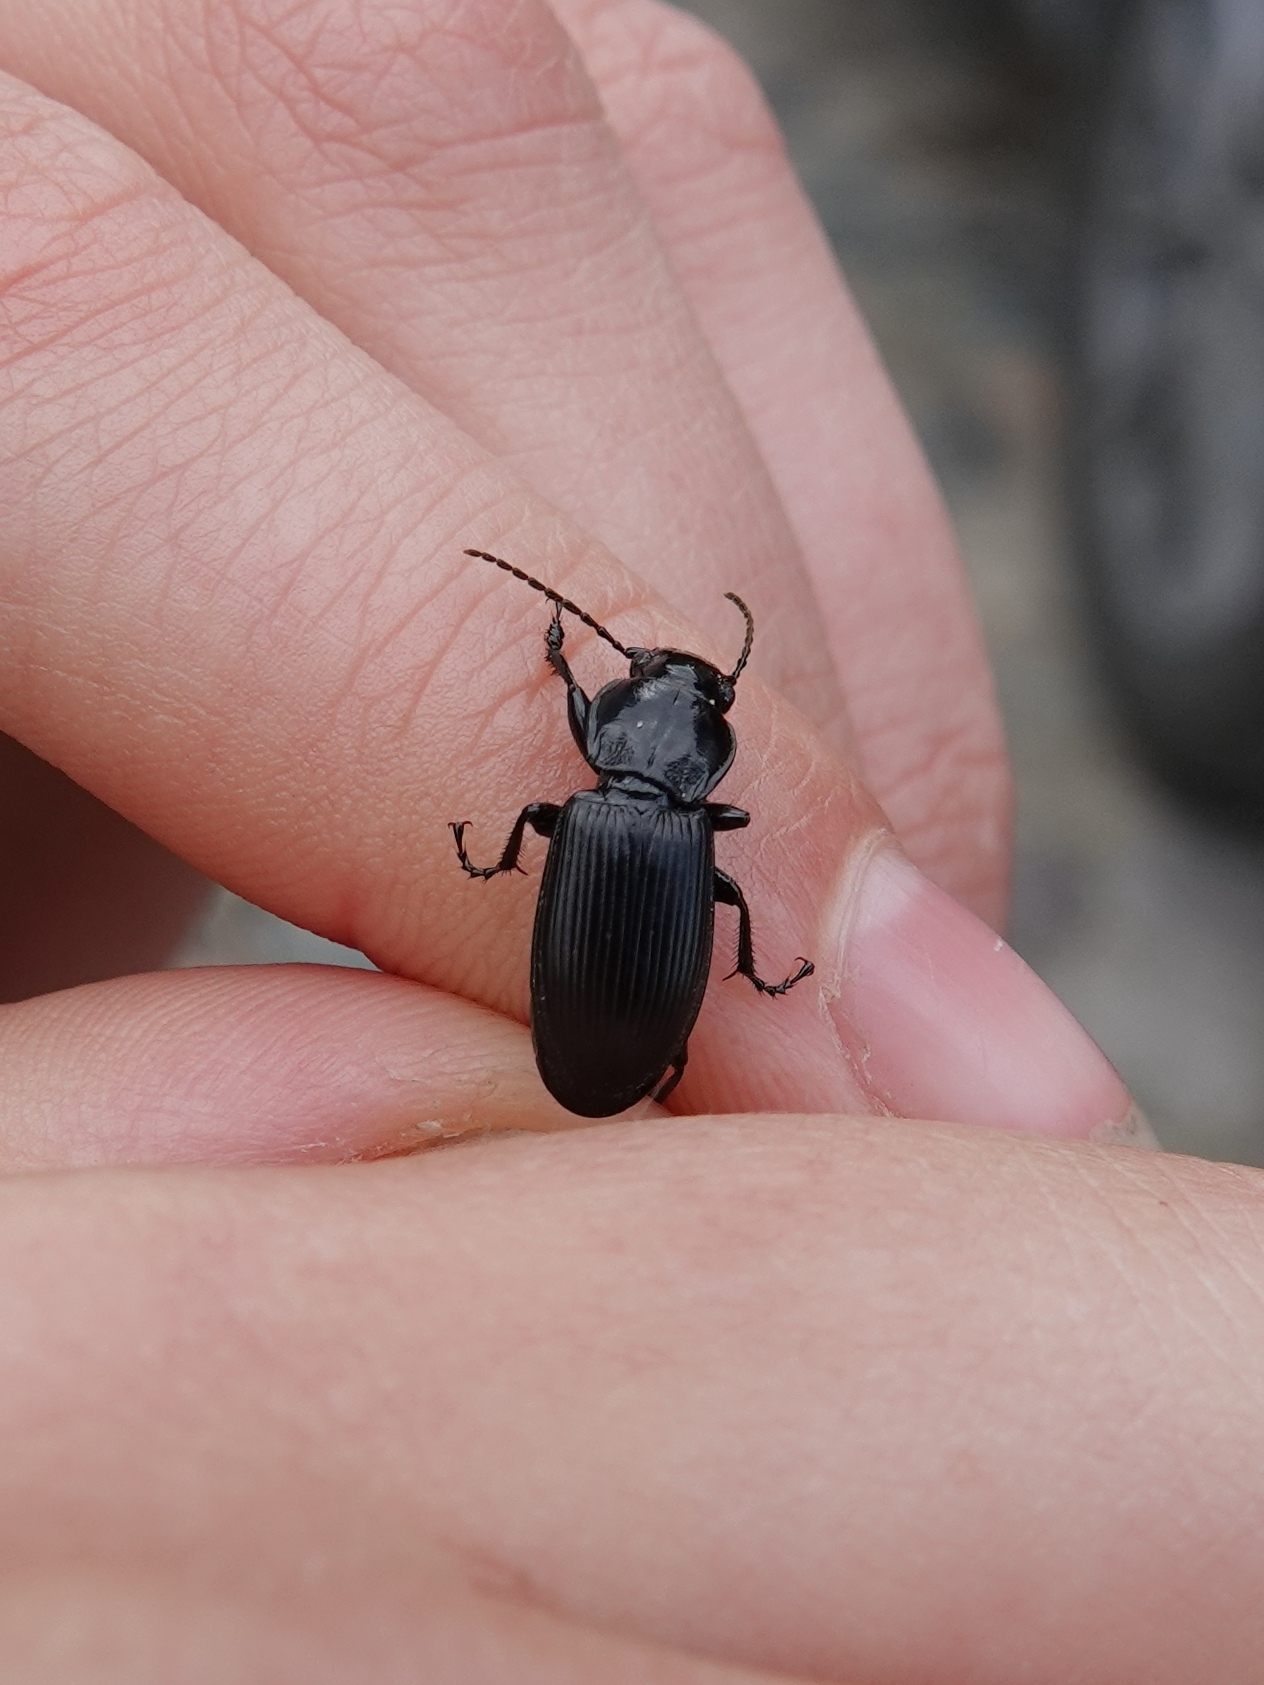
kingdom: Animalia
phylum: Arthropoda
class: Insecta
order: Coleoptera
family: Carabidae
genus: Pterostichus
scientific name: Pterostichus melanarius
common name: European dark harp ground beetle
